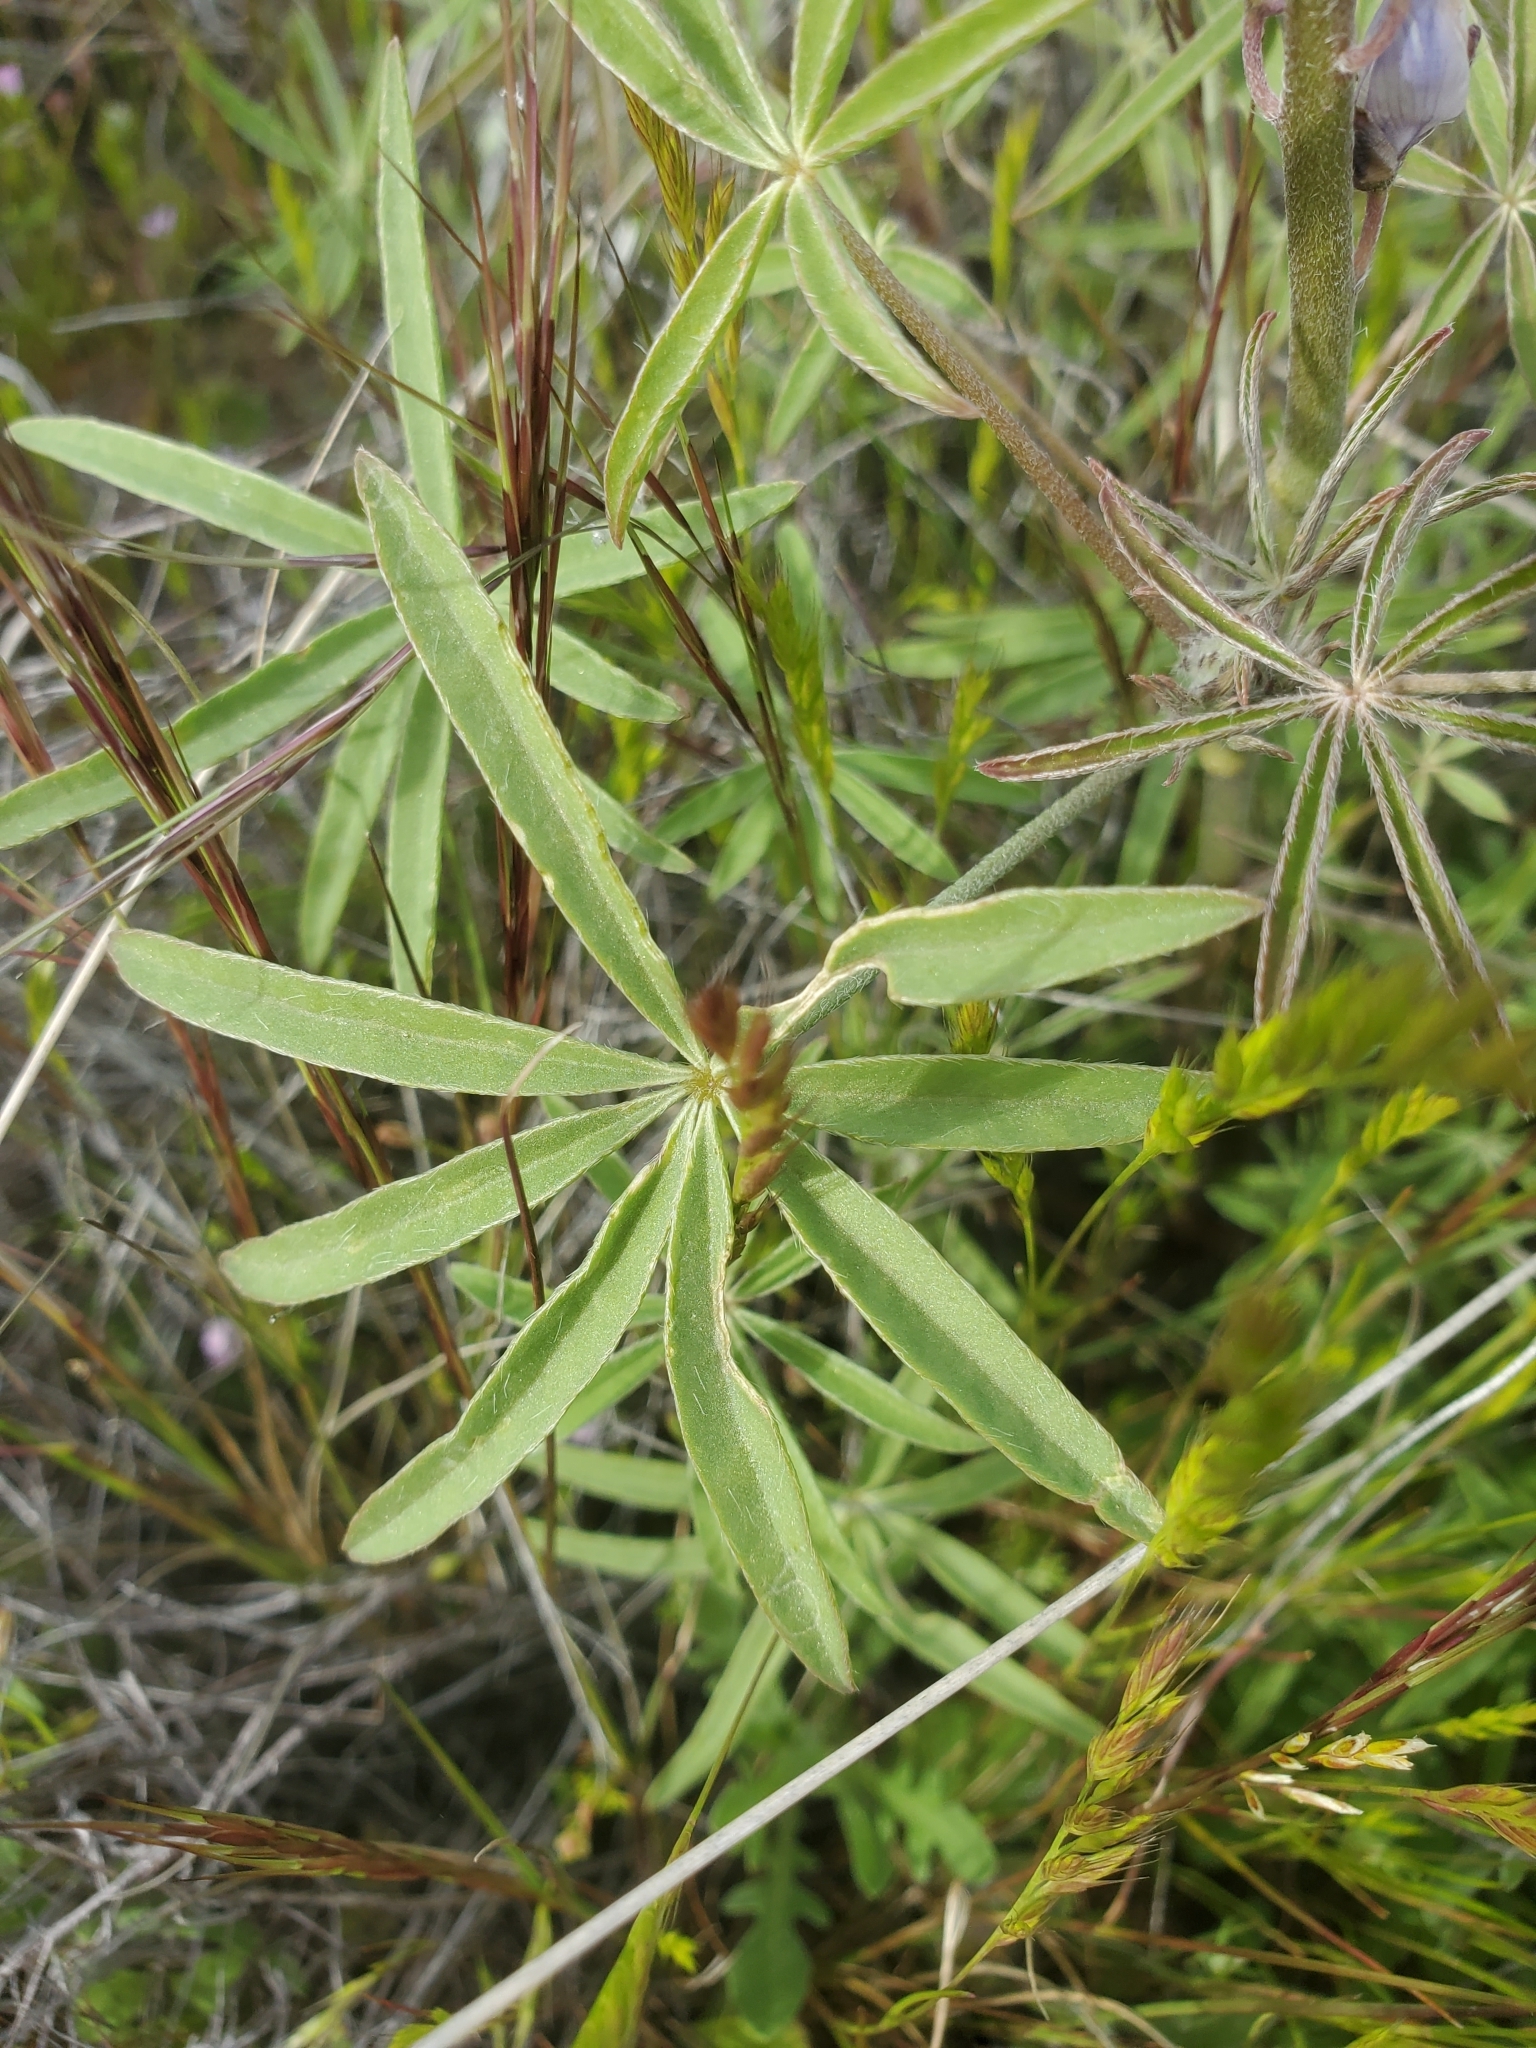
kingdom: Plantae
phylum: Tracheophyta
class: Magnoliopsida
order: Fabales
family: Fabaceae
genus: Lupinus
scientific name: Lupinus sparsiflorus
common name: Coulter's lupine
